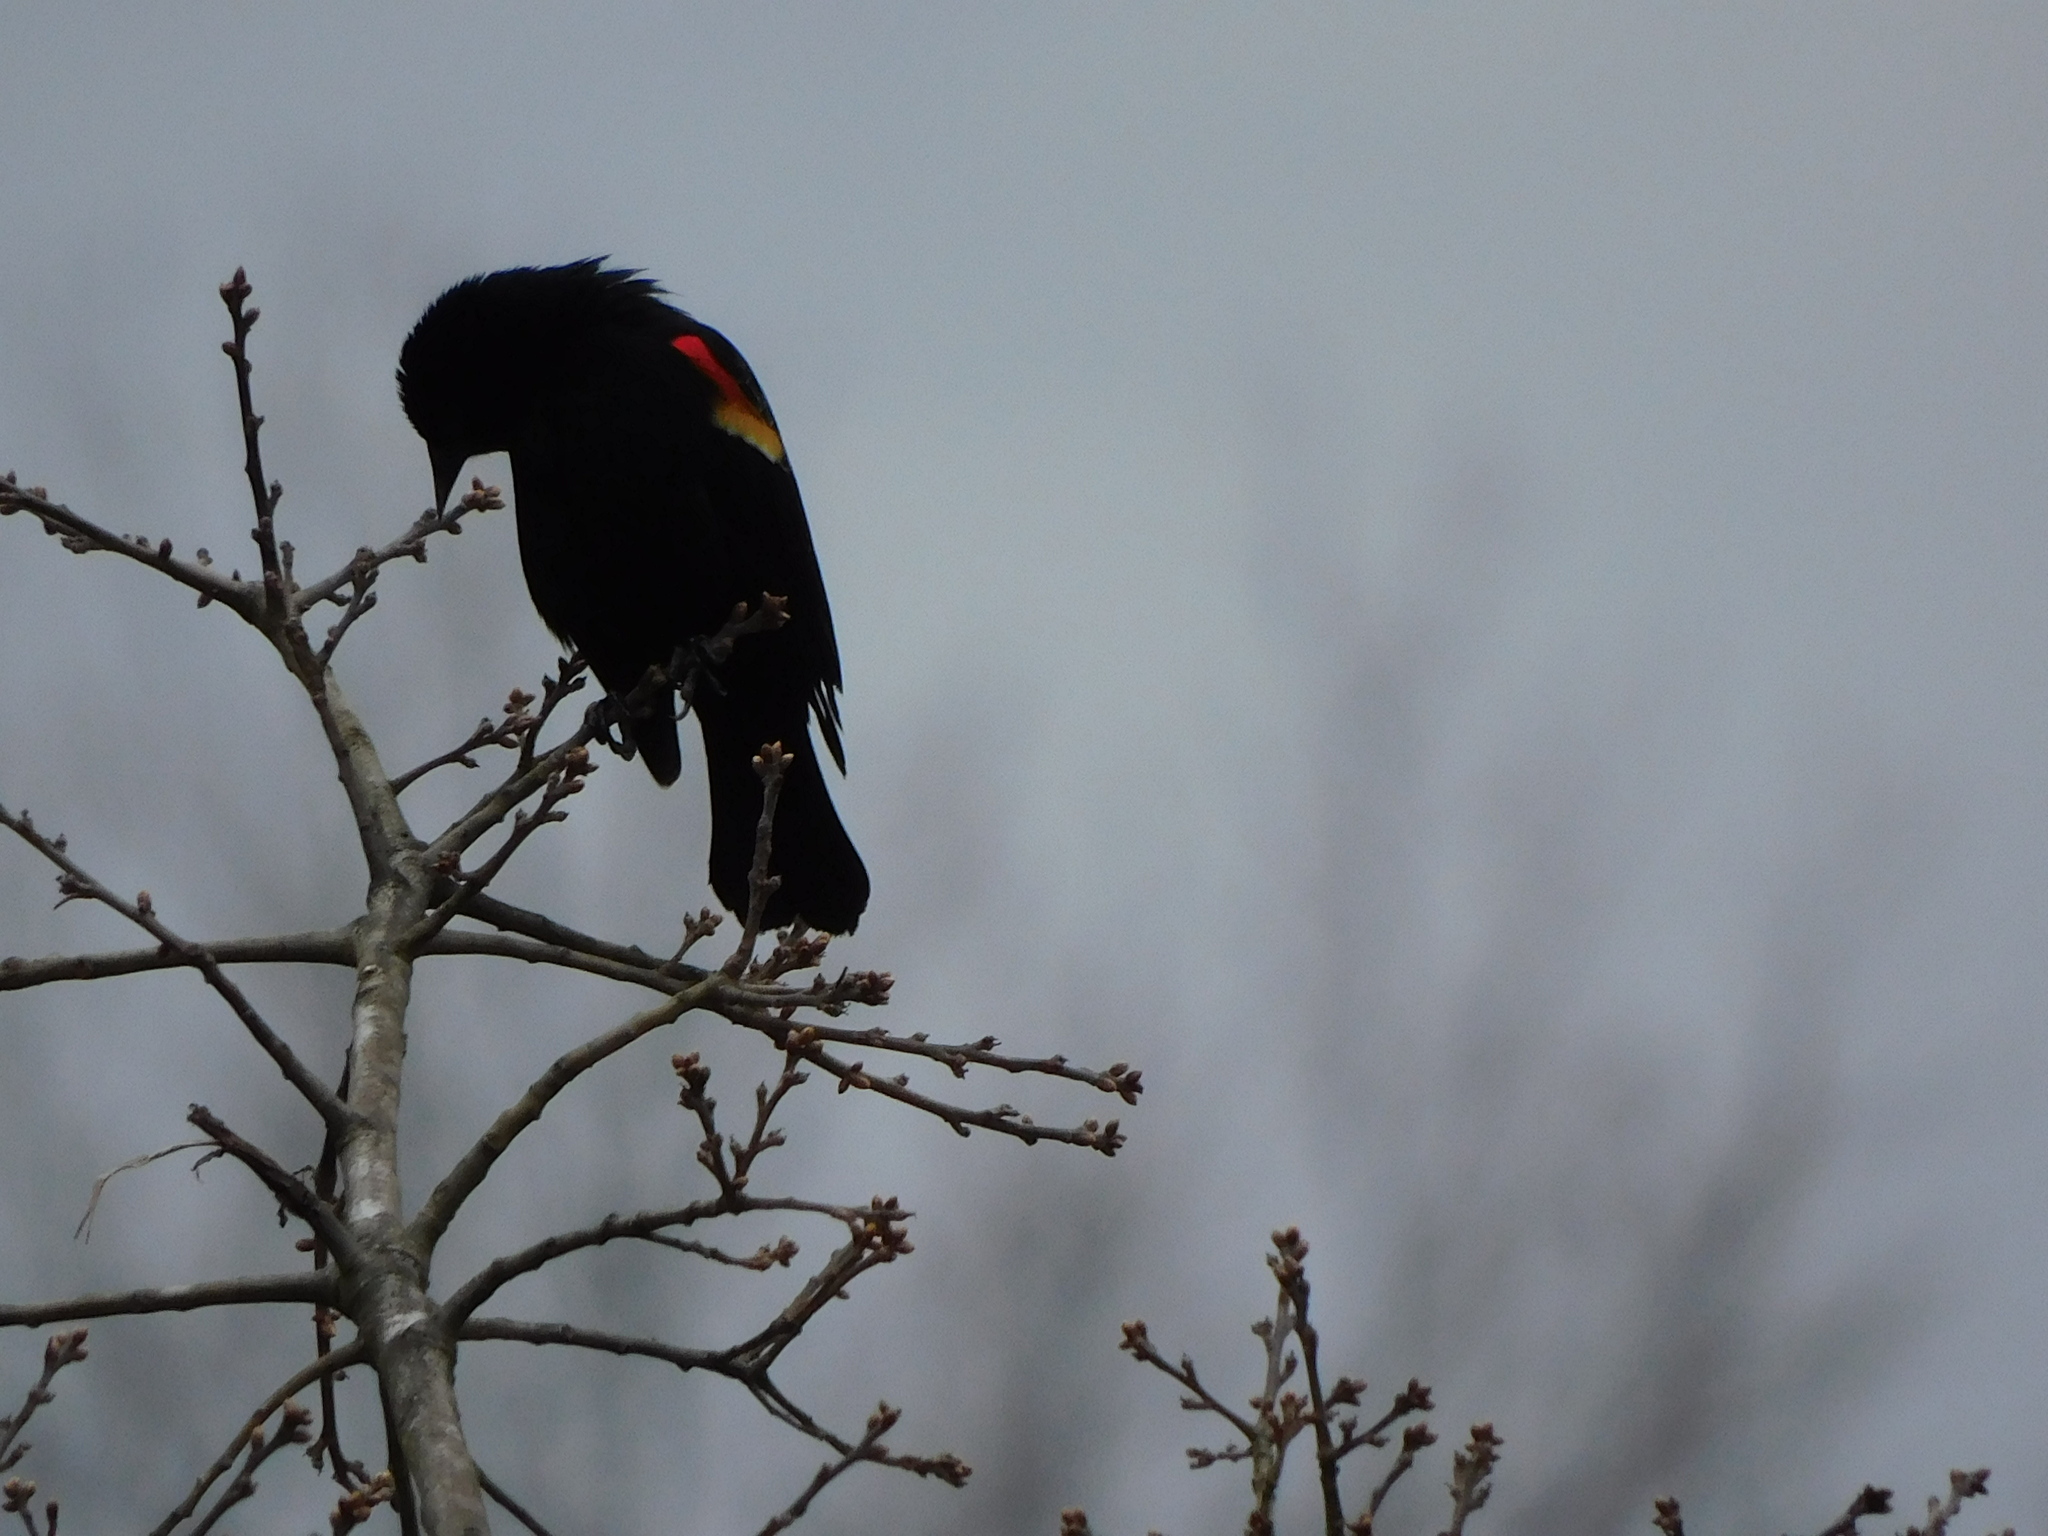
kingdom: Animalia
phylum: Chordata
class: Aves
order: Passeriformes
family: Icteridae
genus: Agelaius
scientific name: Agelaius phoeniceus
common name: Red-winged blackbird
